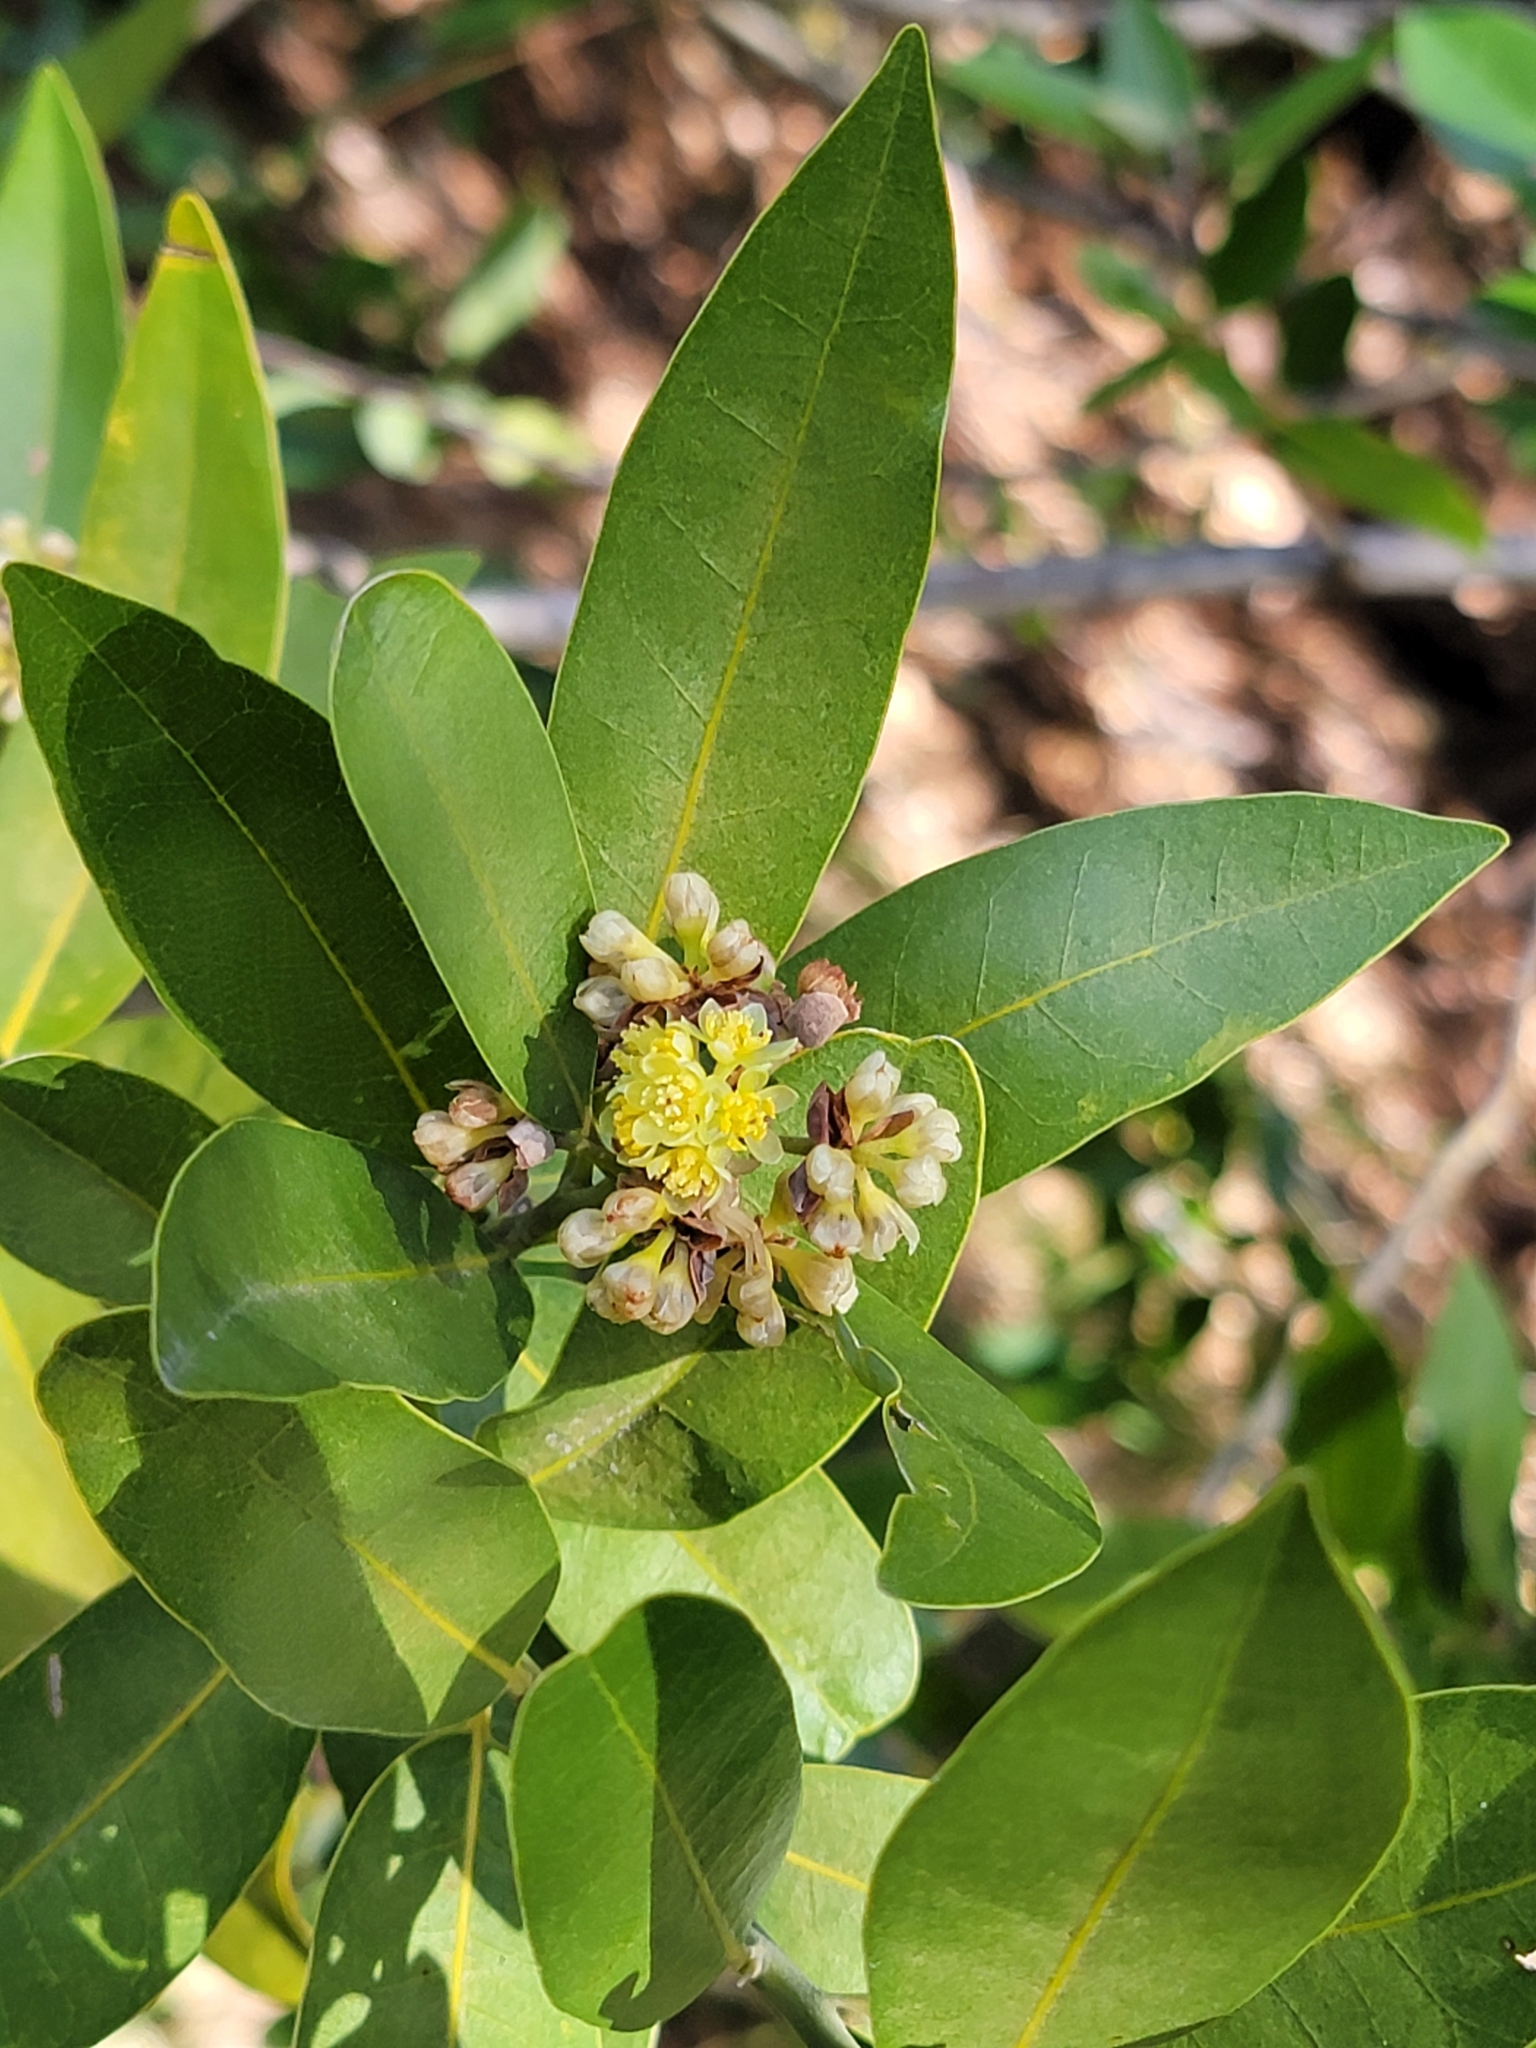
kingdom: Plantae
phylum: Tracheophyta
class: Magnoliopsida
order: Laurales
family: Lauraceae
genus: Umbellularia
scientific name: Umbellularia californica
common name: California bay
